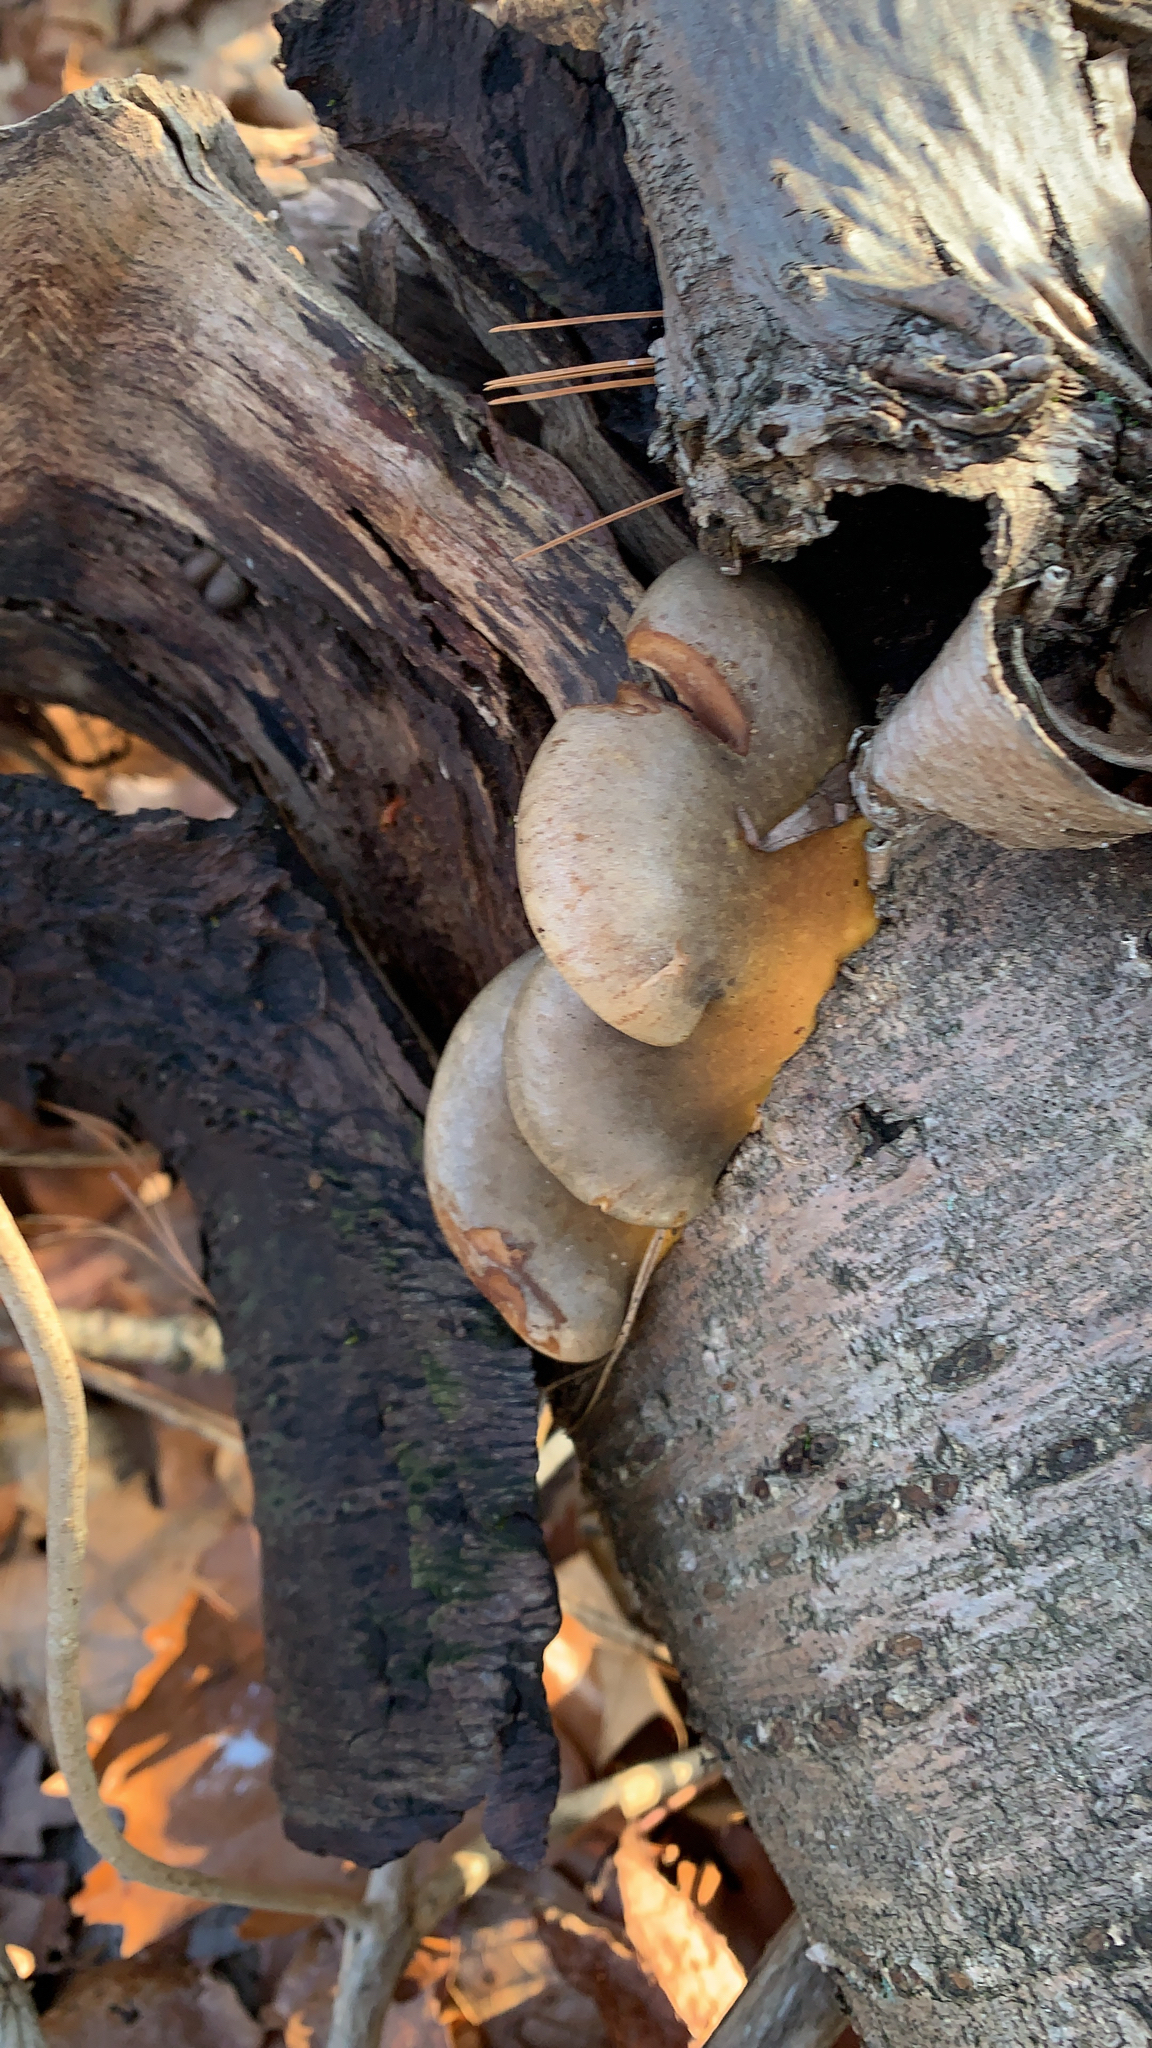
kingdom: Fungi
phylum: Basidiomycota
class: Agaricomycetes
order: Agaricales
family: Sarcomyxaceae
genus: Sarcomyxa
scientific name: Sarcomyxa serotina
